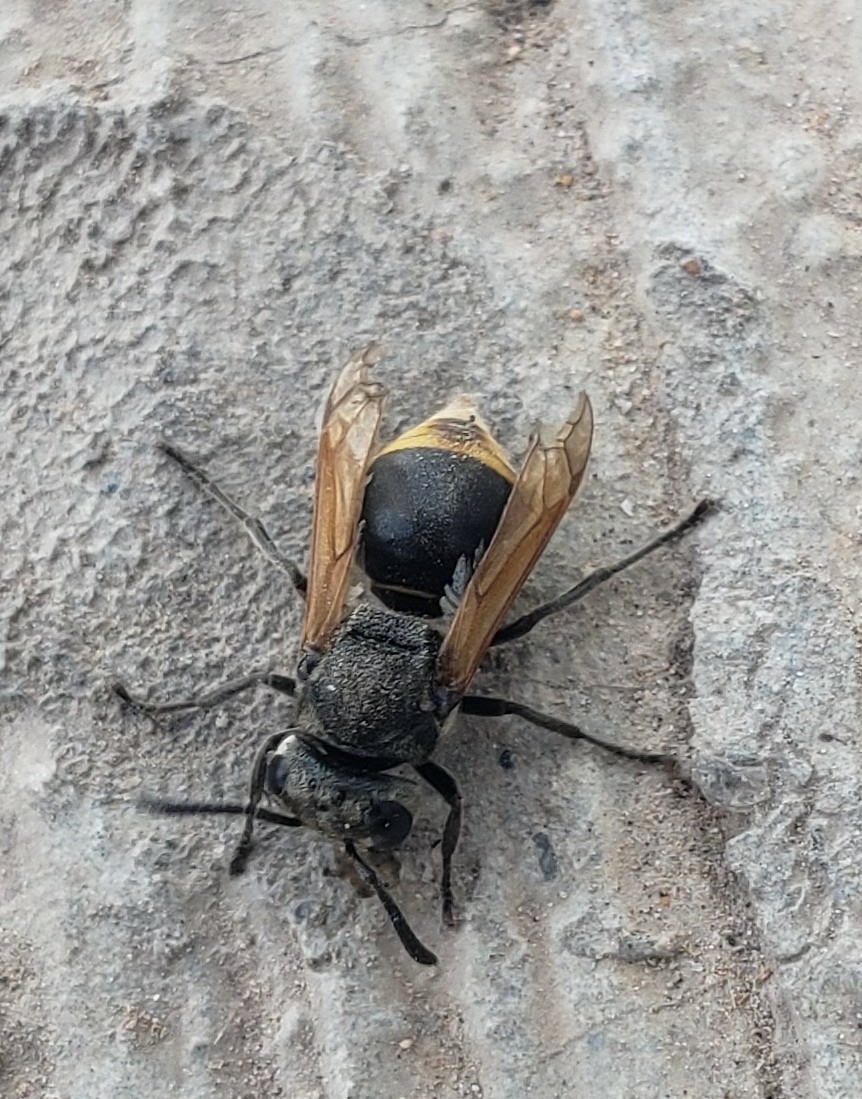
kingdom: Animalia
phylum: Arthropoda
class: Insecta
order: Hymenoptera
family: Vespidae
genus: Brachygastra
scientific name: Brachygastra mellifica
